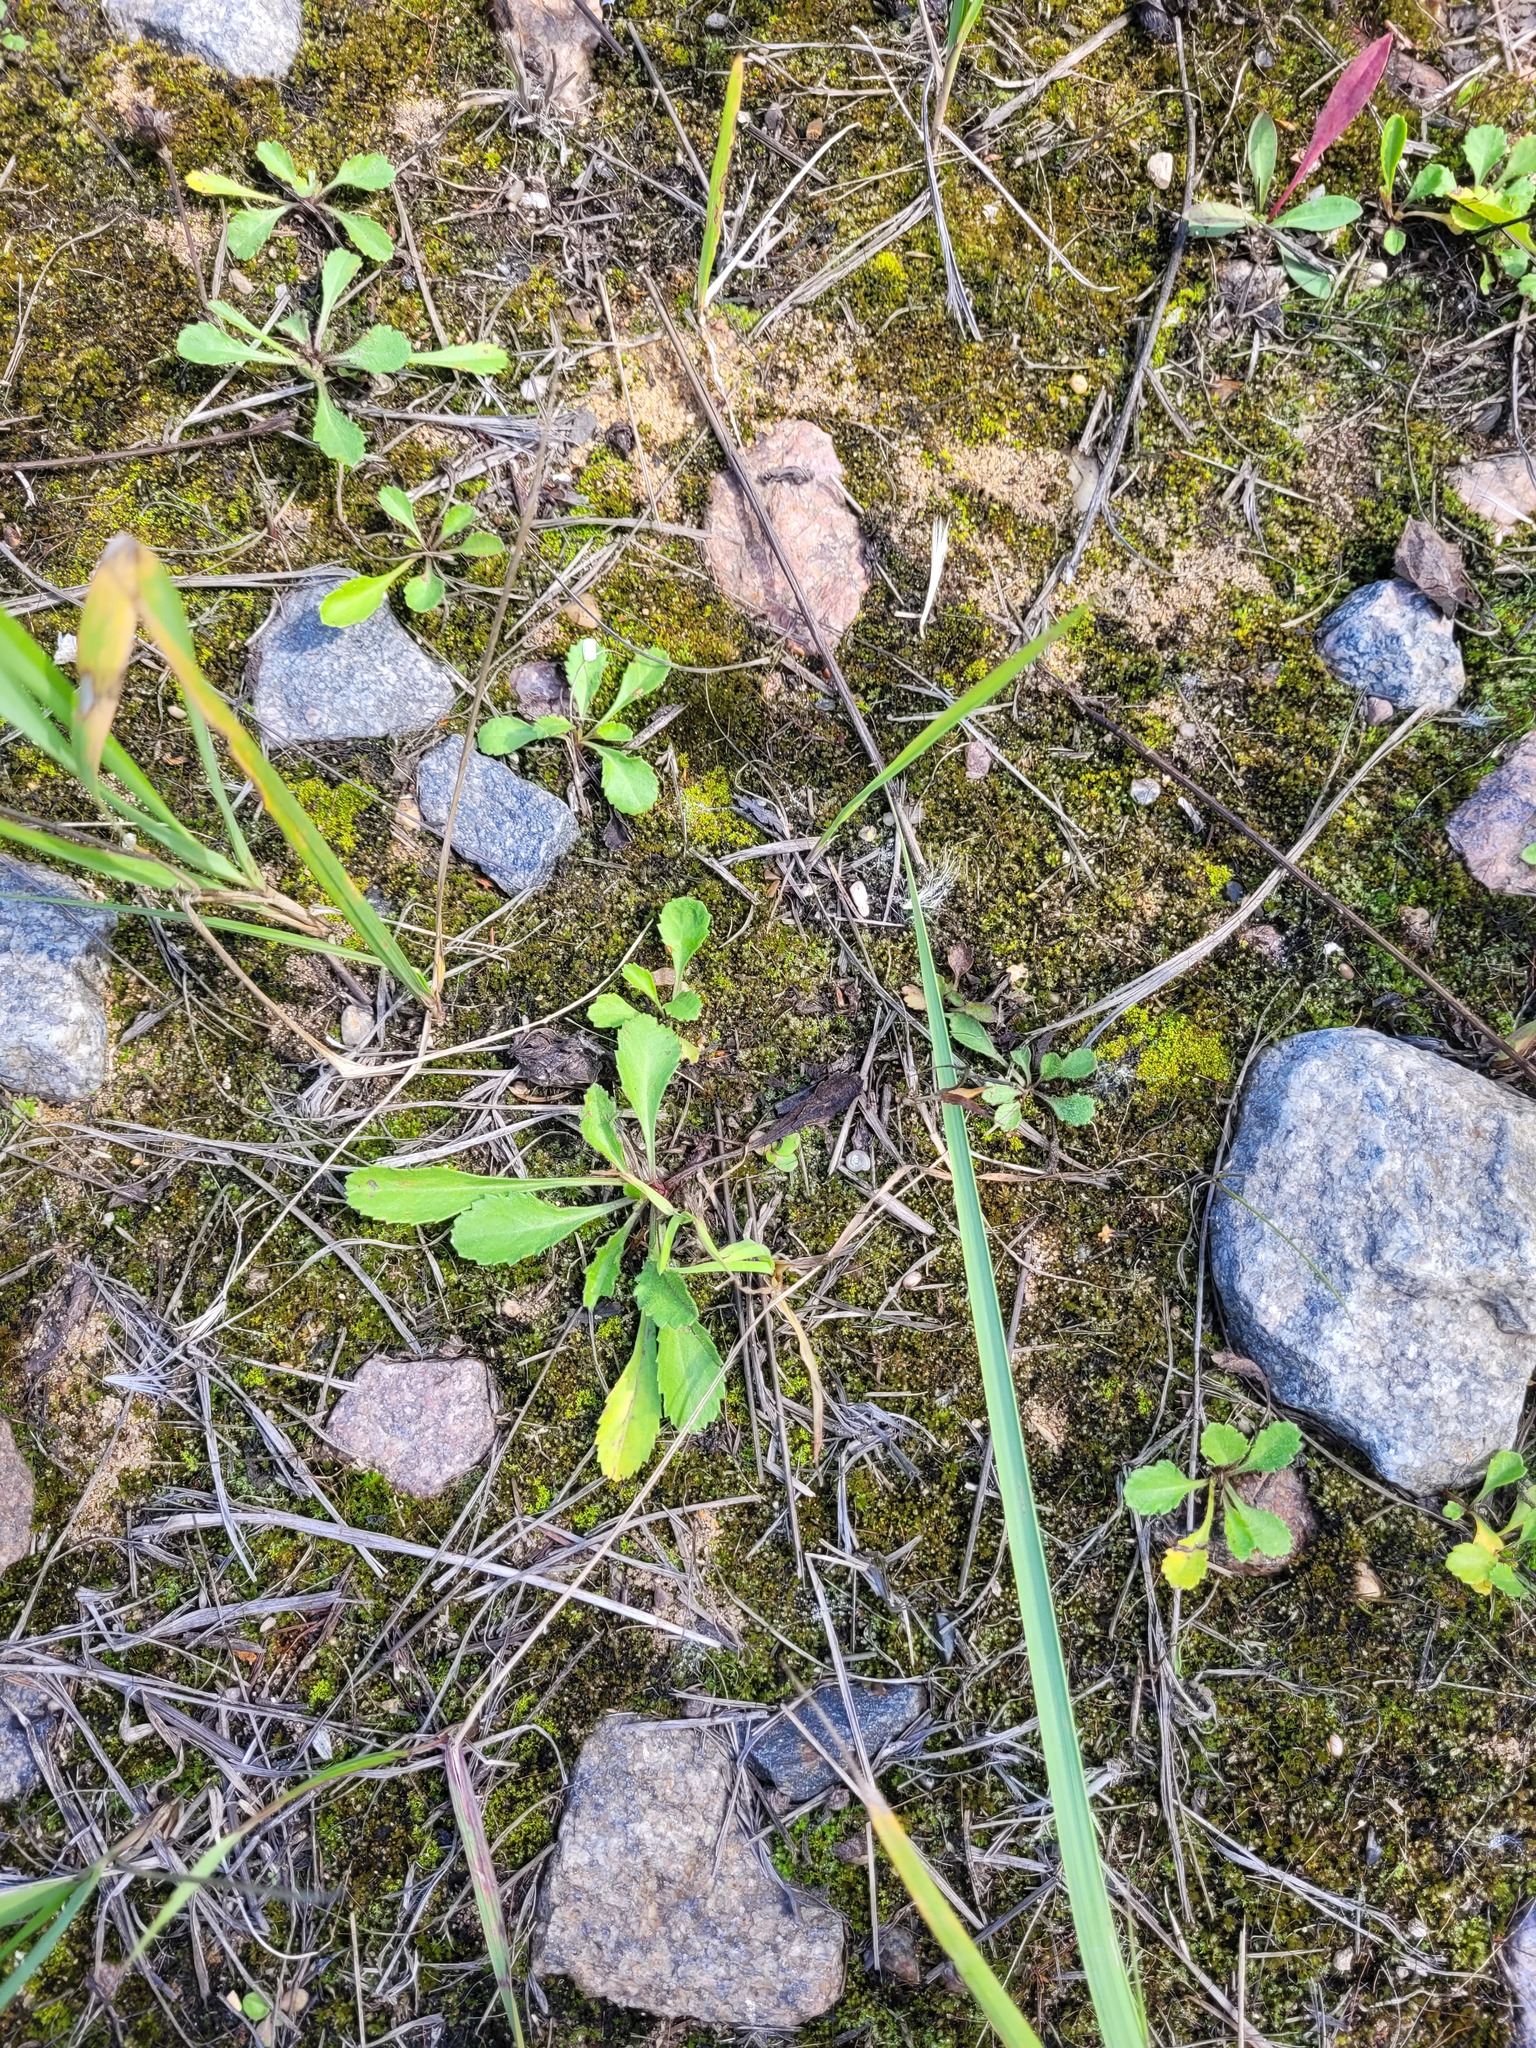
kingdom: Plantae
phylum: Tracheophyta
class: Magnoliopsida
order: Asterales
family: Asteraceae
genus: Leucanthemum
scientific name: Leucanthemum vulgare
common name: Oxeye daisy
